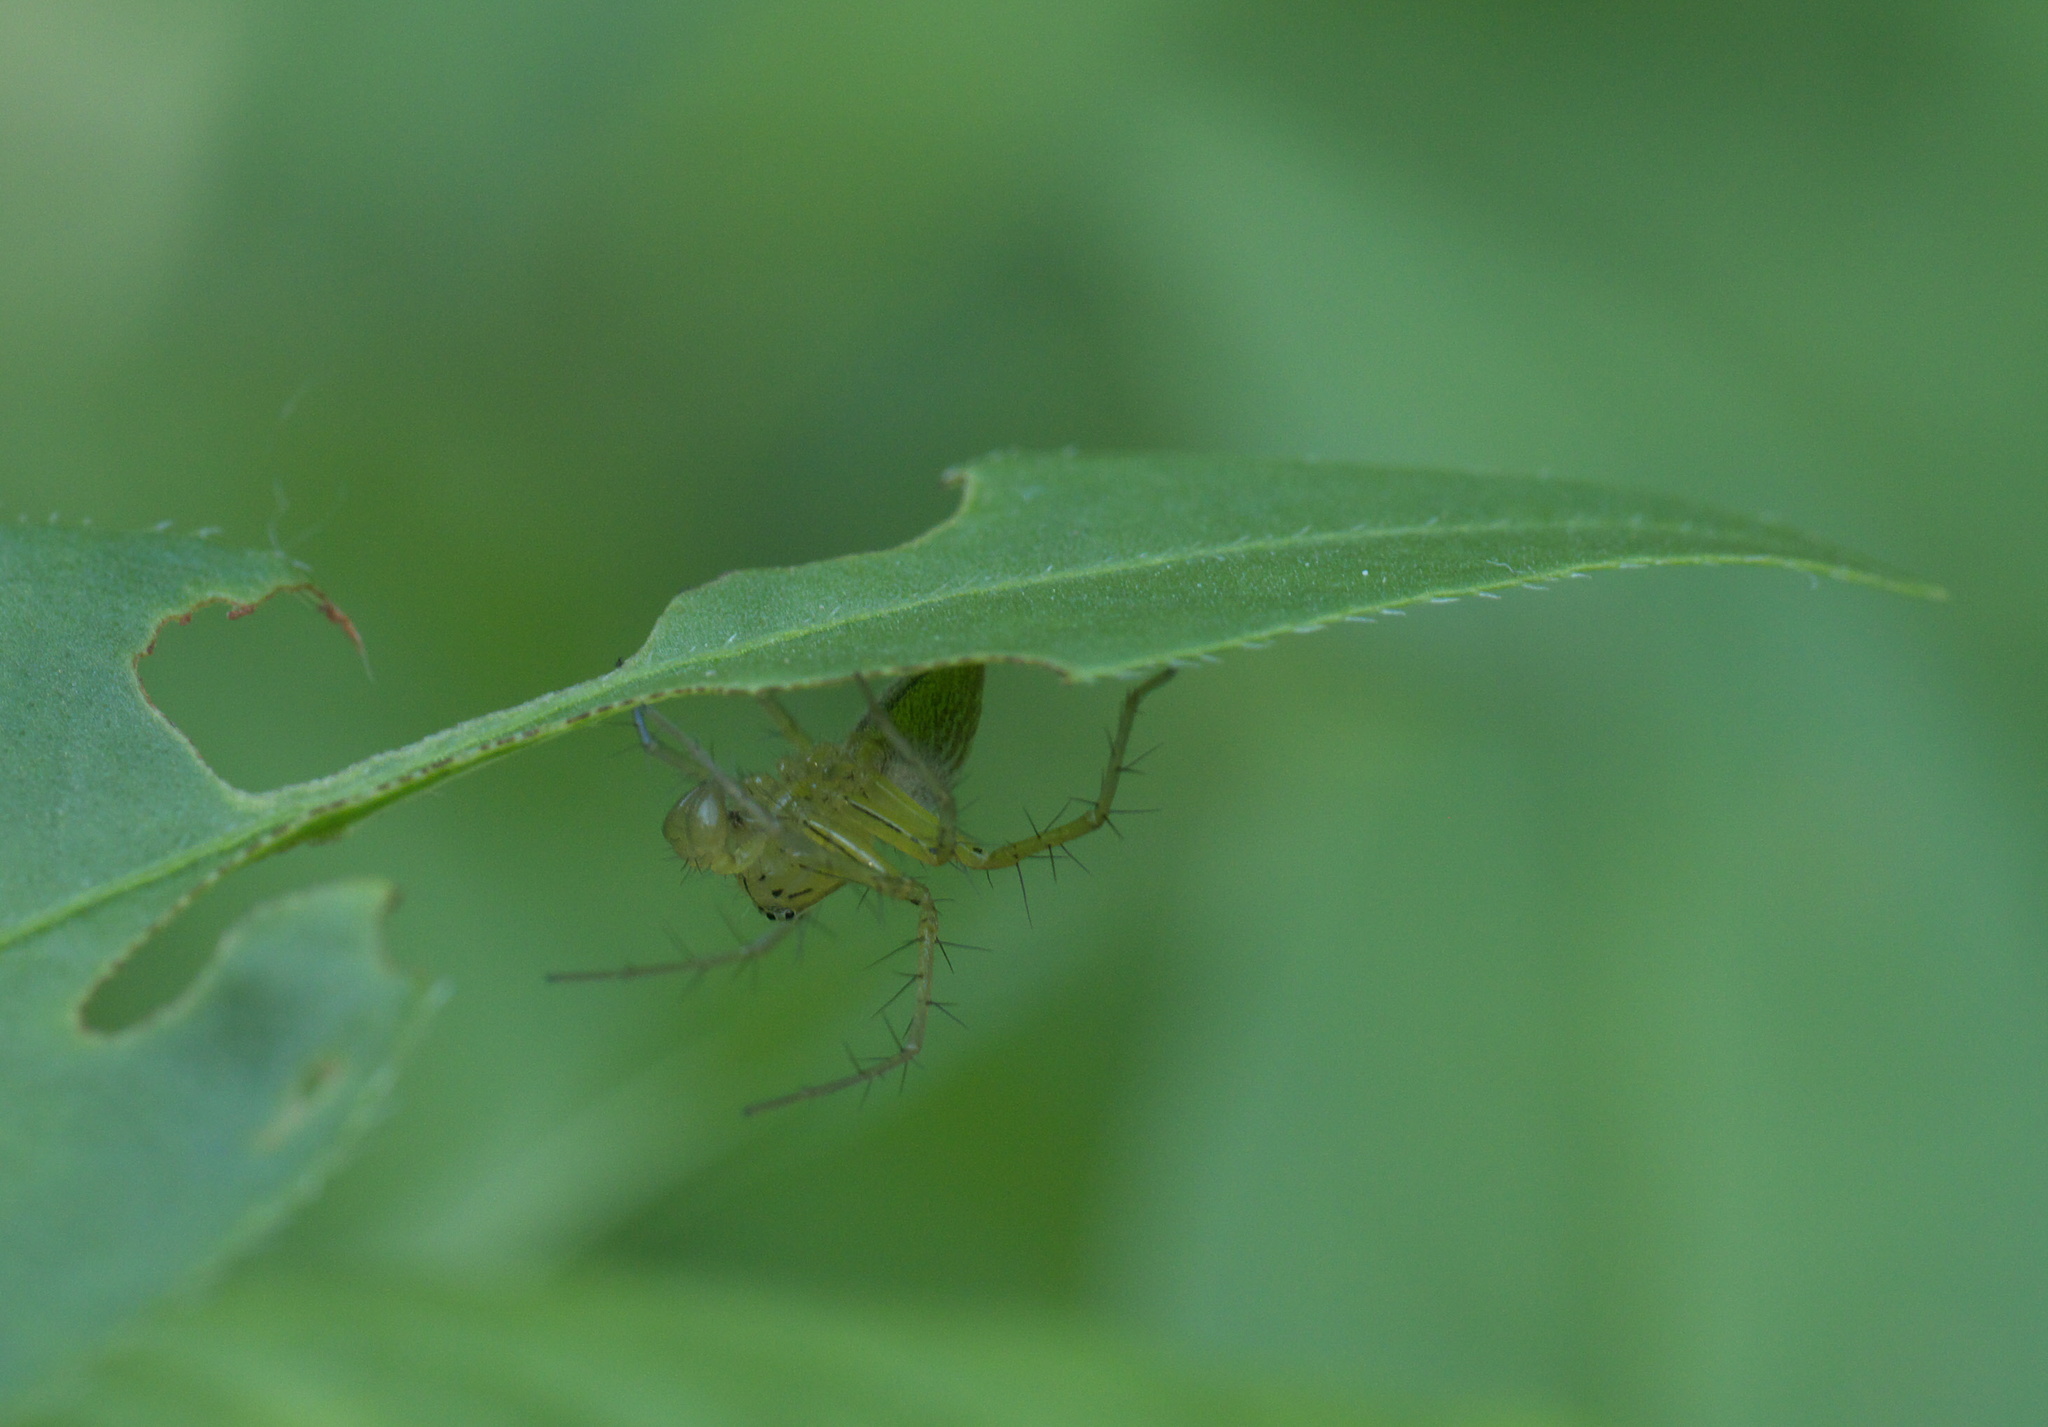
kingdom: Animalia
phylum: Arthropoda
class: Arachnida
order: Araneae
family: Oxyopidae
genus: Oxyopes
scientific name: Oxyopes salticus
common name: Lynx spiders
